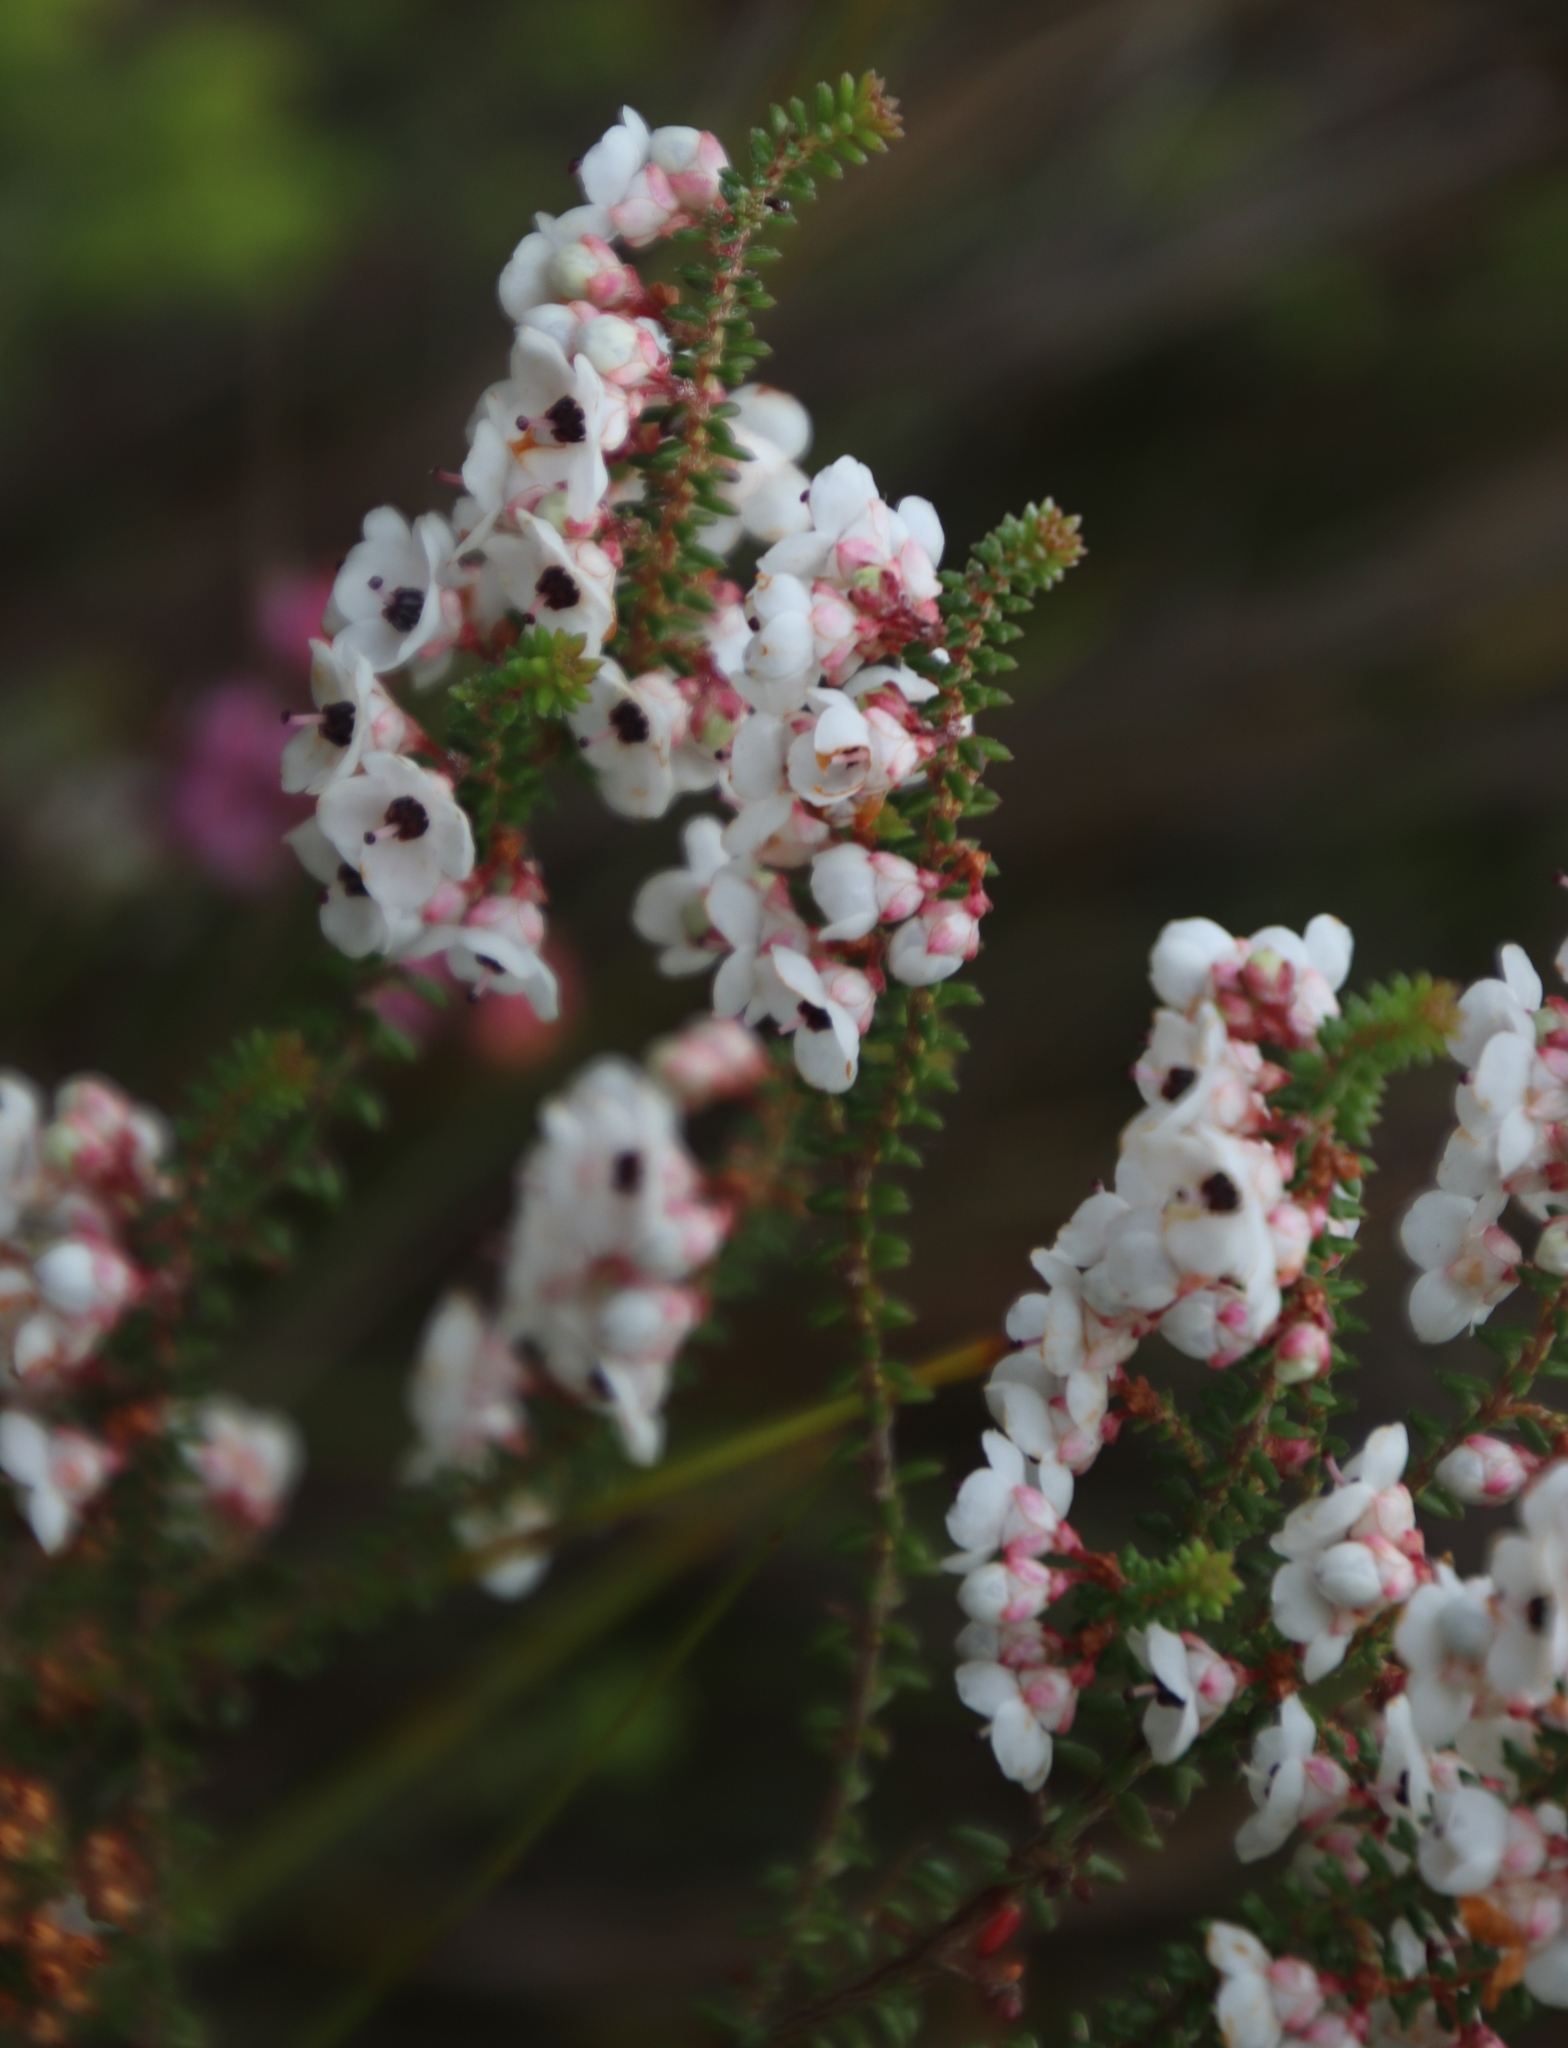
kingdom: Plantae
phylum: Tracheophyta
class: Magnoliopsida
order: Ericales
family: Ericaceae
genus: Erica
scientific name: Erica corydalis
